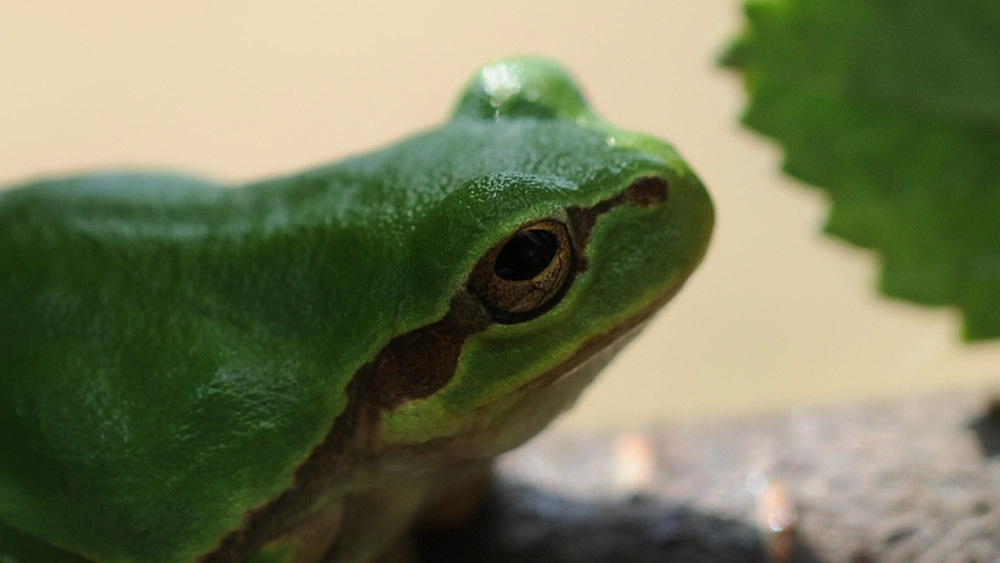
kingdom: Animalia
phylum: Chordata
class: Amphibia
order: Anura
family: Hylidae
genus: Dryophytes
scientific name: Dryophytes japonicus
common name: Japanese treefrog
